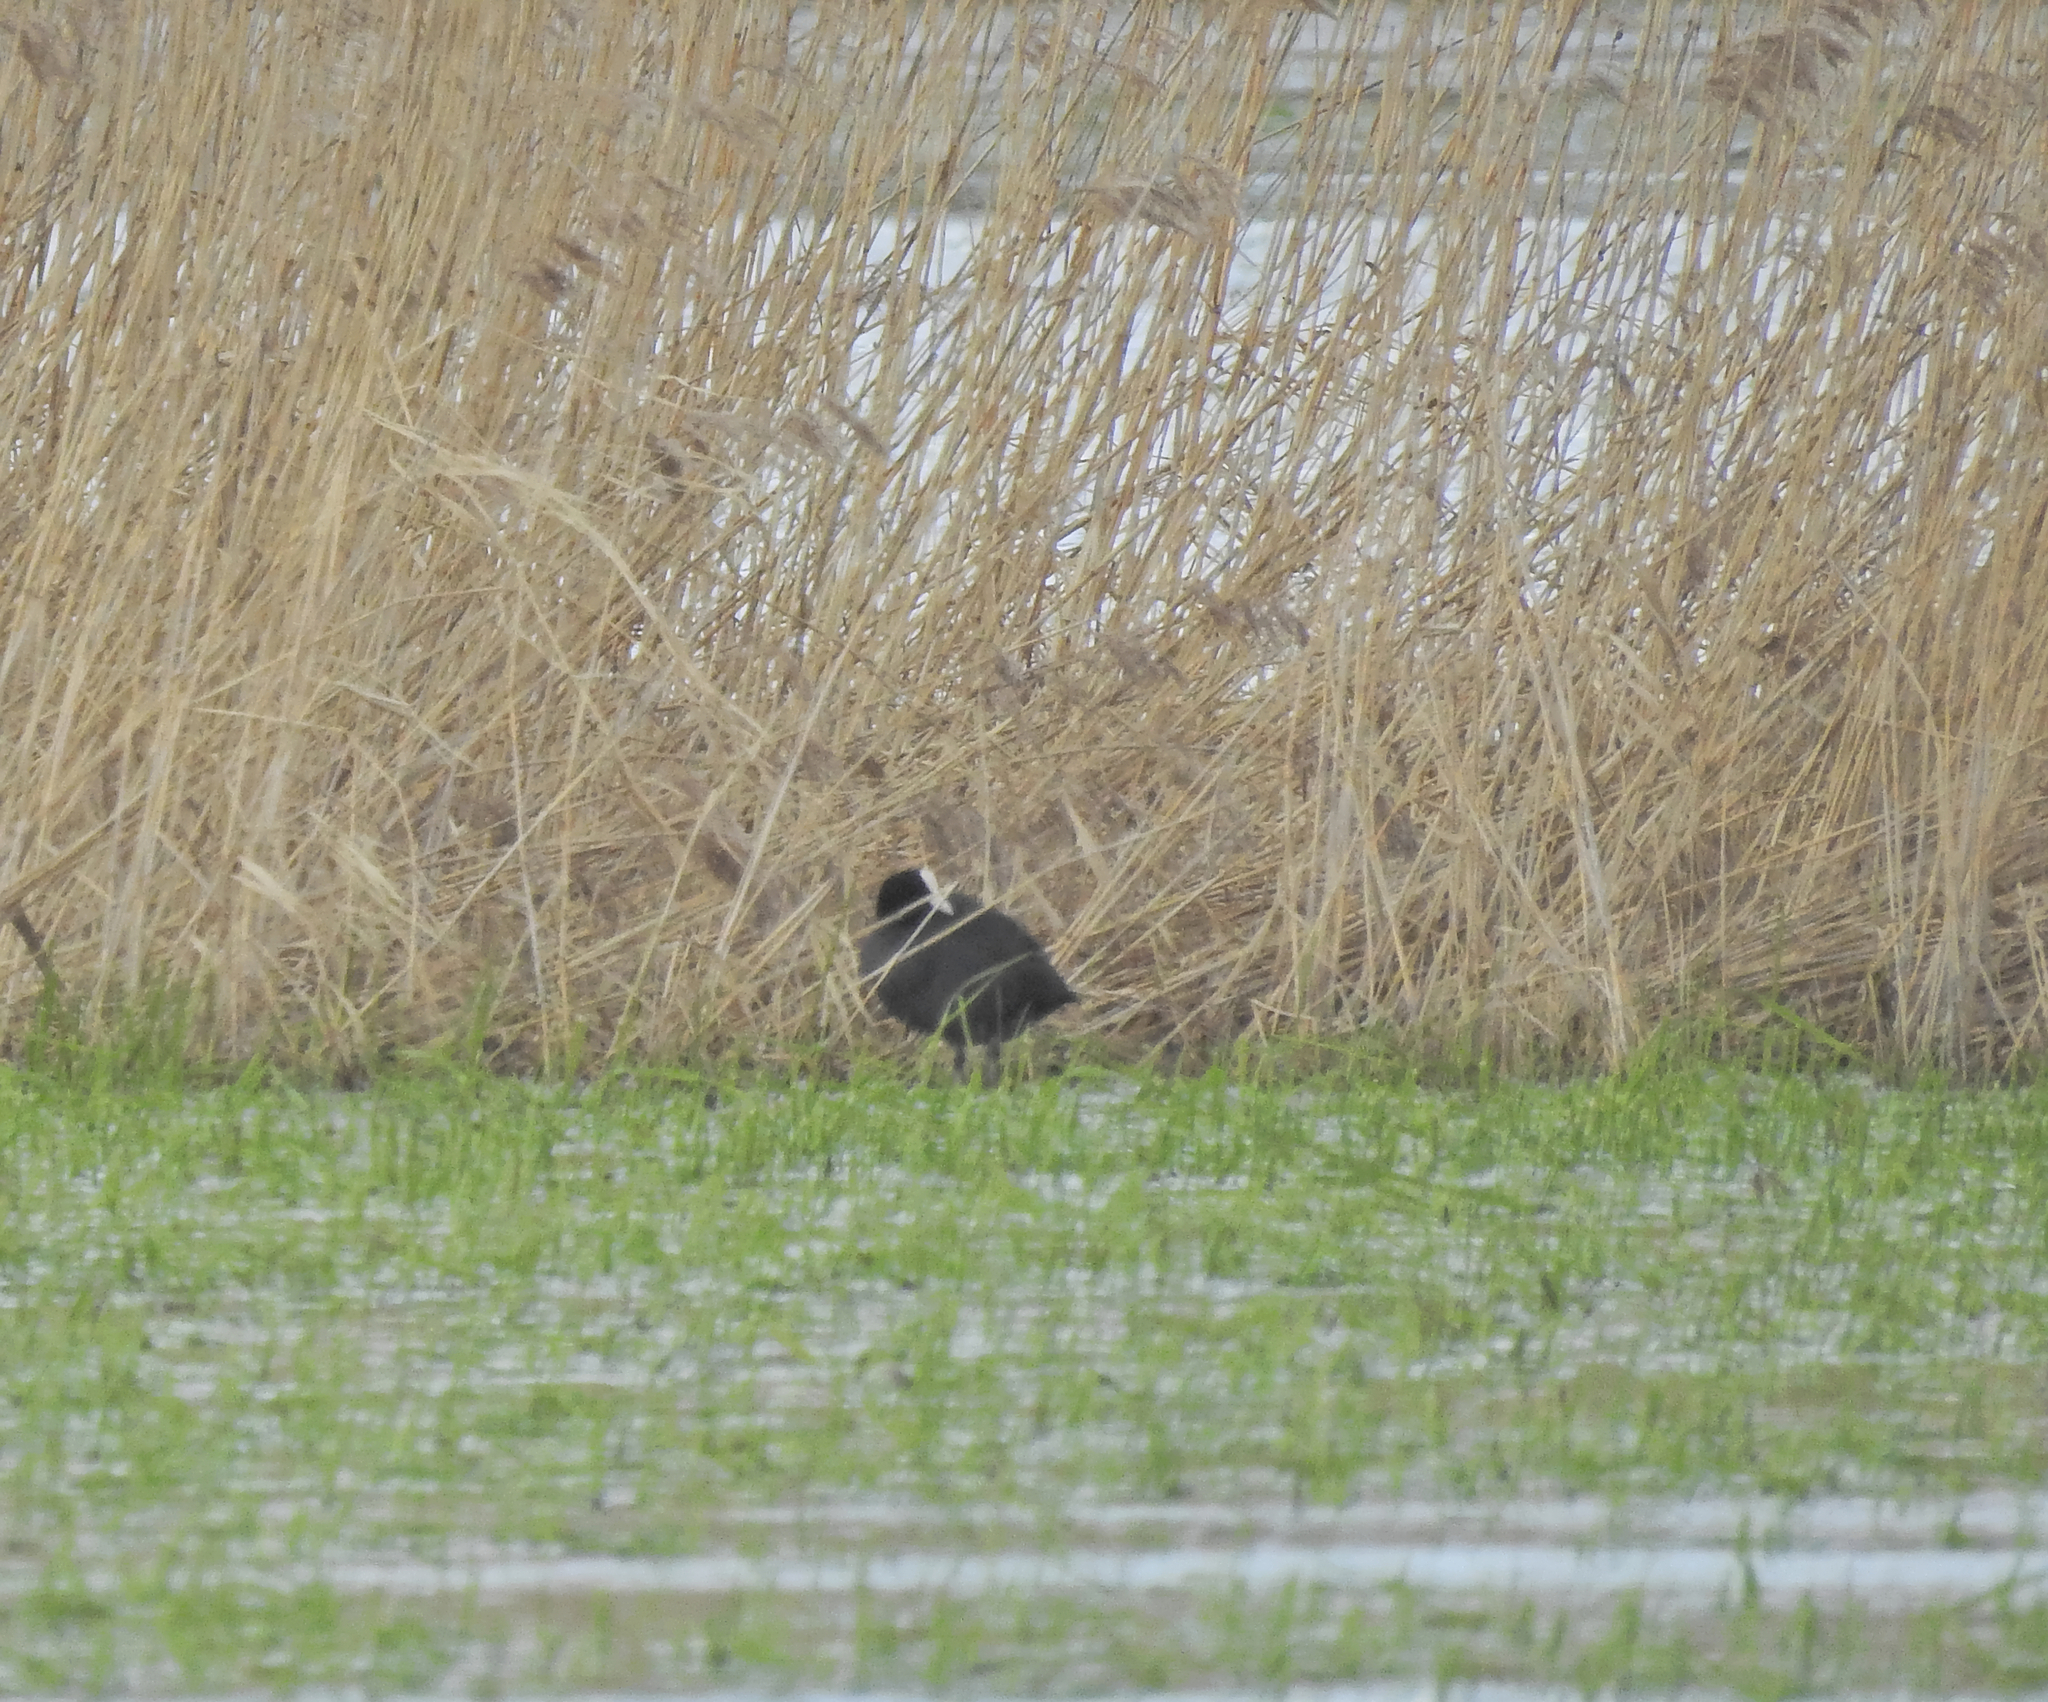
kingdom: Animalia
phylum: Chordata
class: Aves
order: Gruiformes
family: Rallidae
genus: Fulica
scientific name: Fulica atra
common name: Eurasian coot
